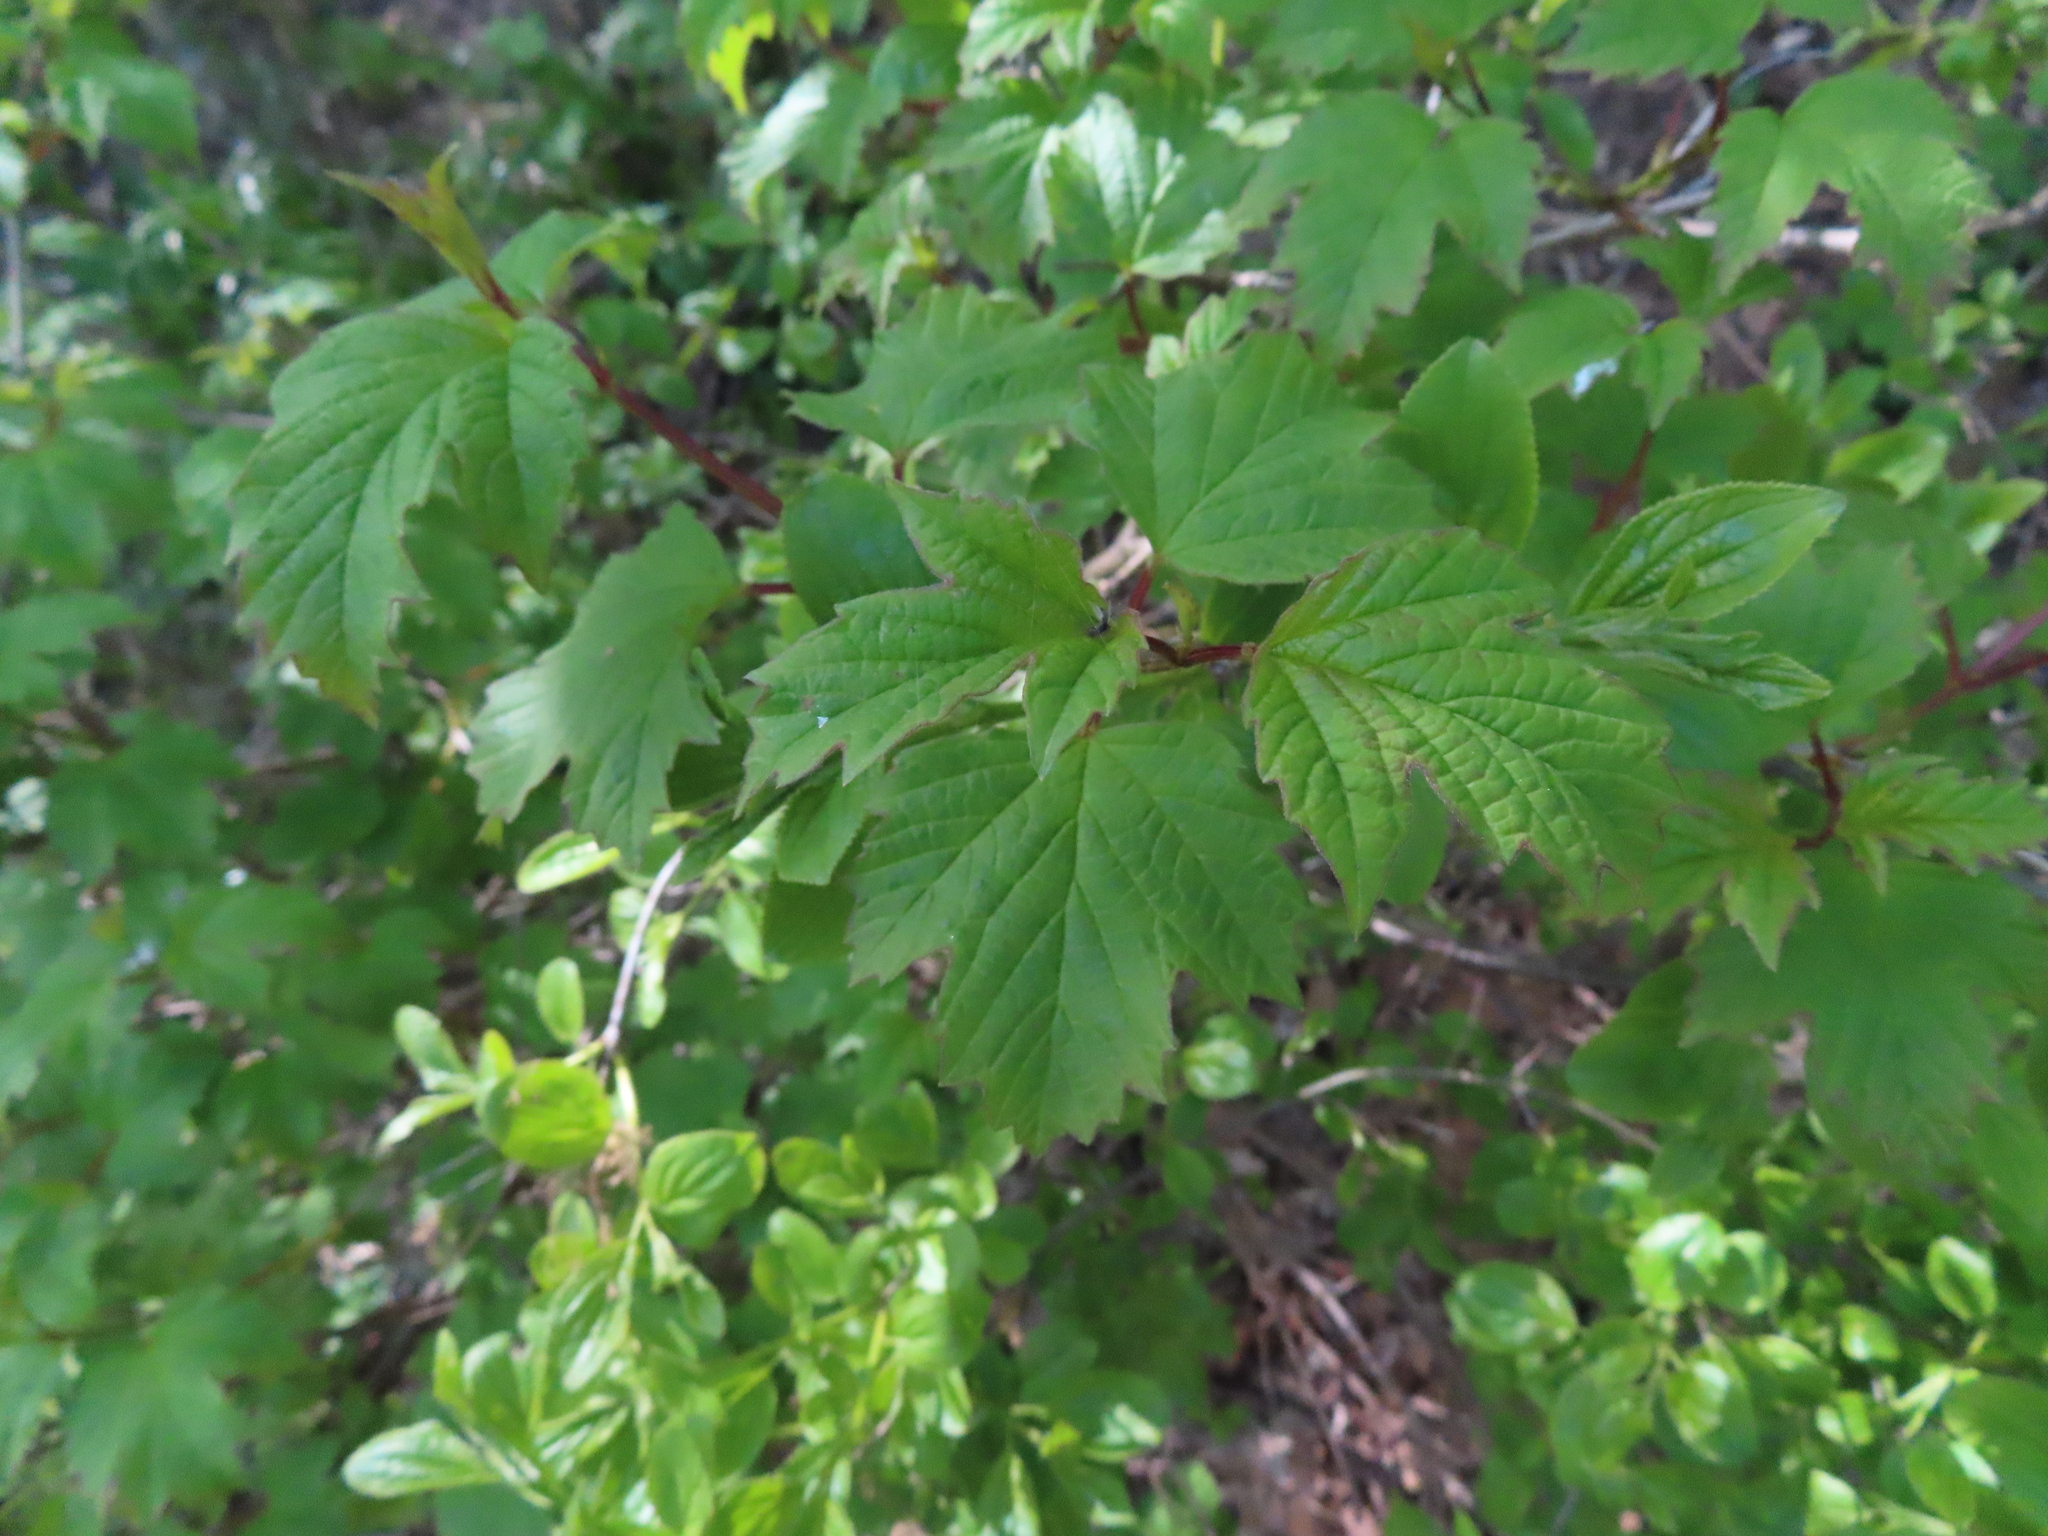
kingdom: Plantae
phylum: Tracheophyta
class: Magnoliopsida
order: Dipsacales
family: Viburnaceae
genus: Viburnum
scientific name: Viburnum opulus
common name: Guelder-rose
